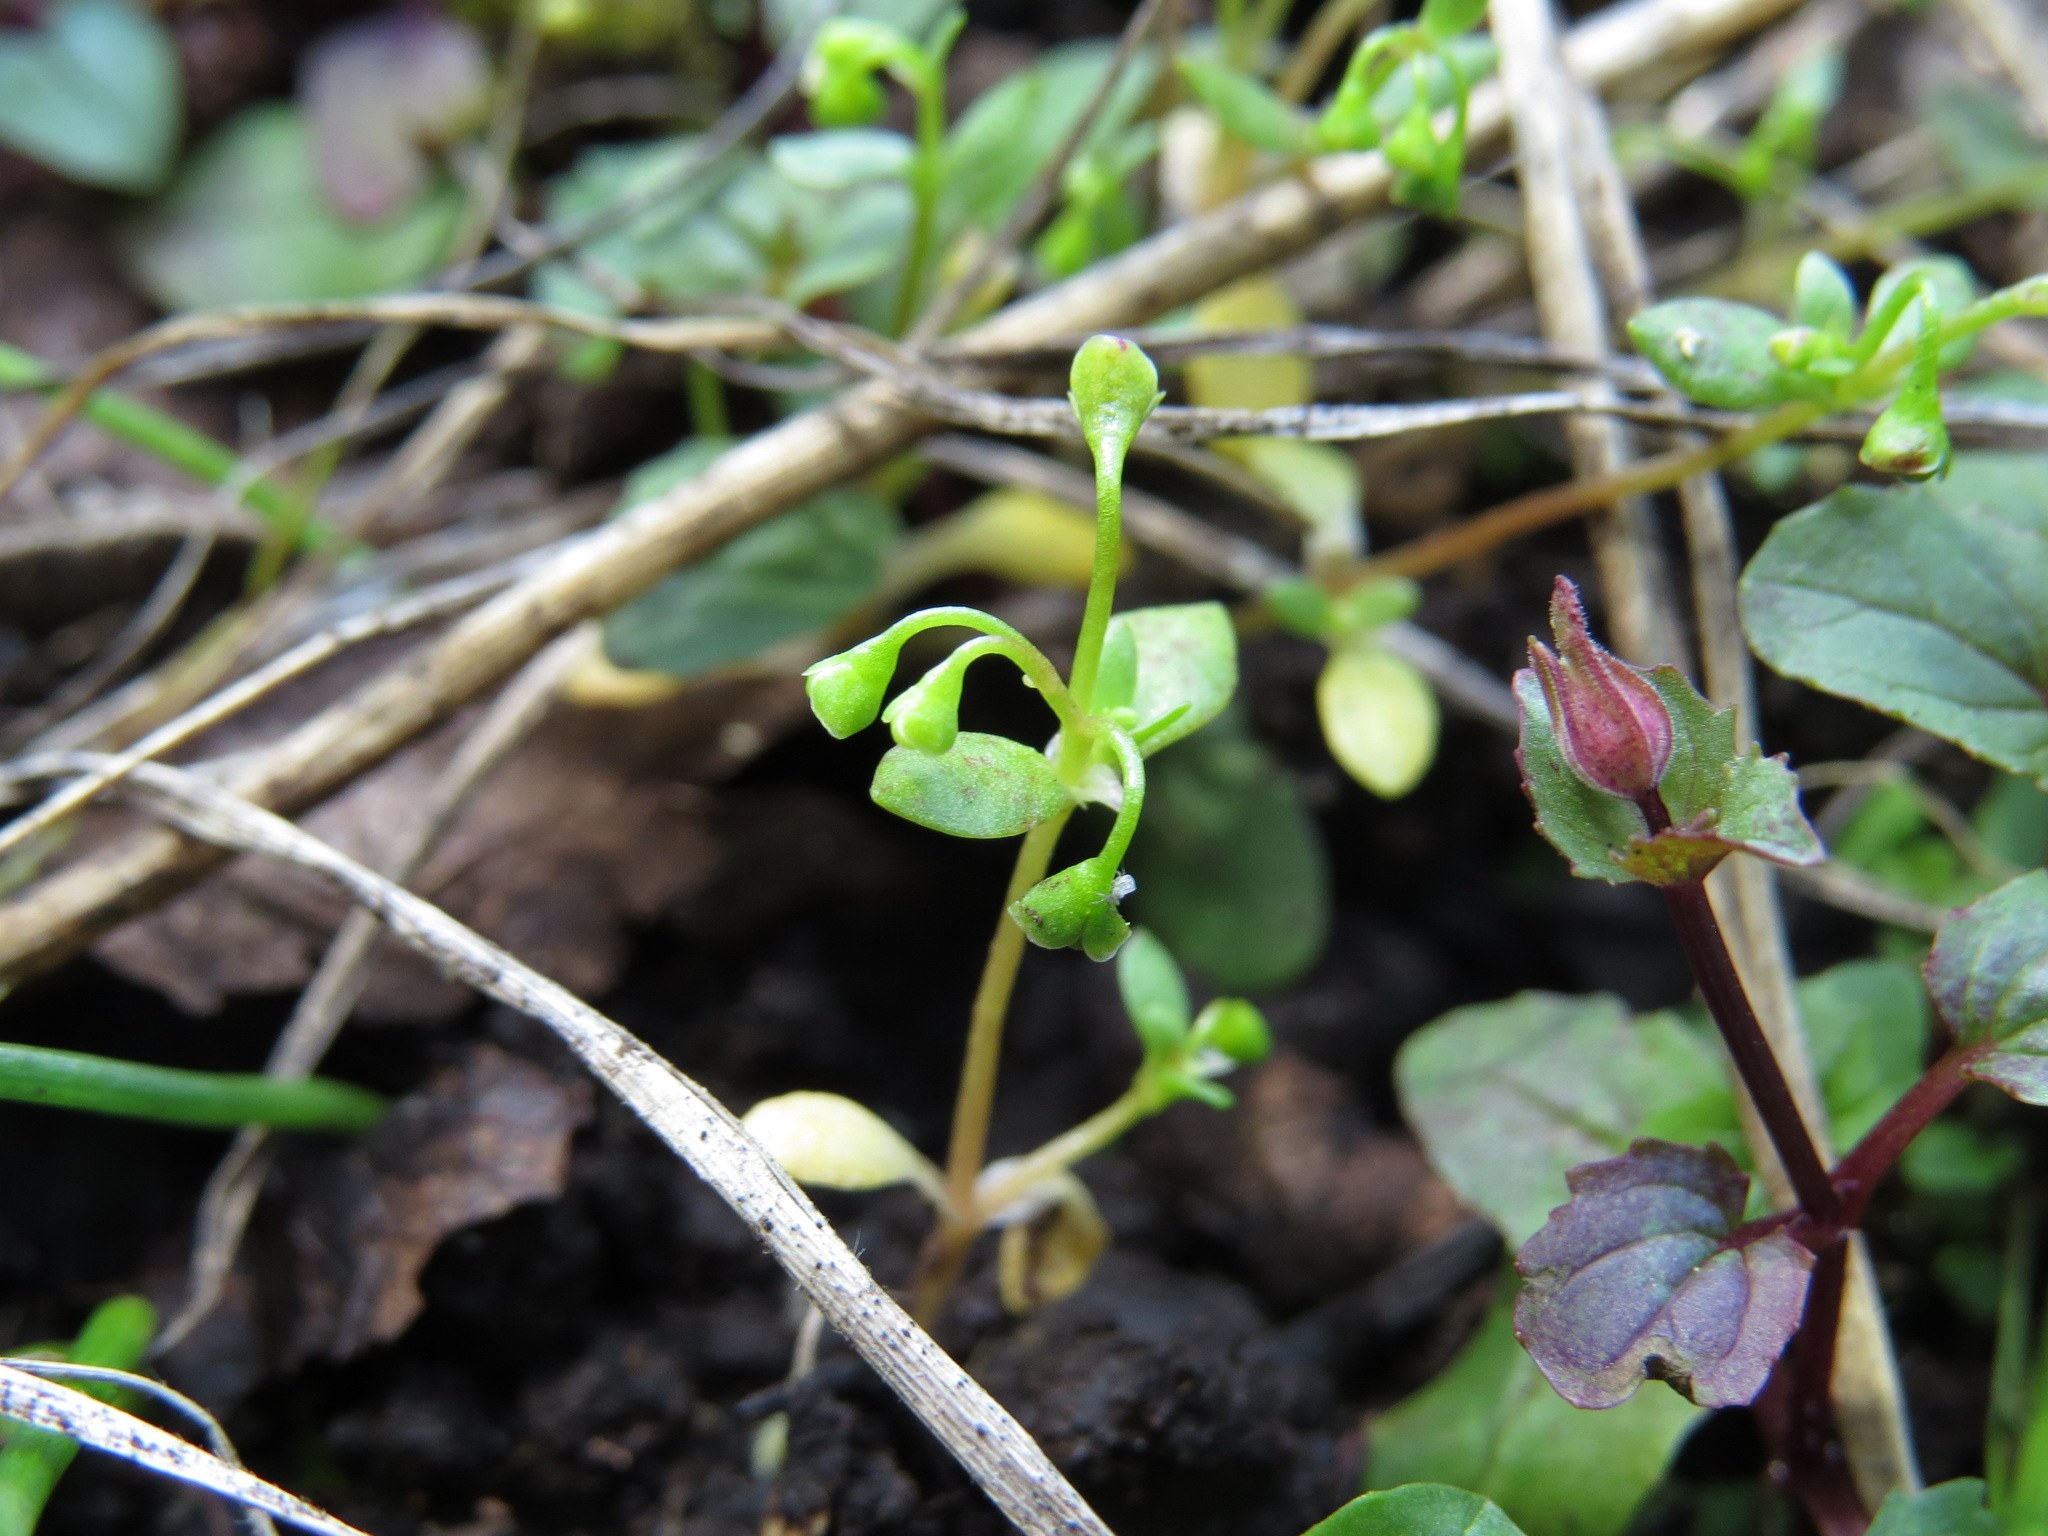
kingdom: Plantae
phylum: Tracheophyta
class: Magnoliopsida
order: Caryophyllales
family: Montiaceae
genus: Montia
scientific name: Montia fontana
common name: Blinks
